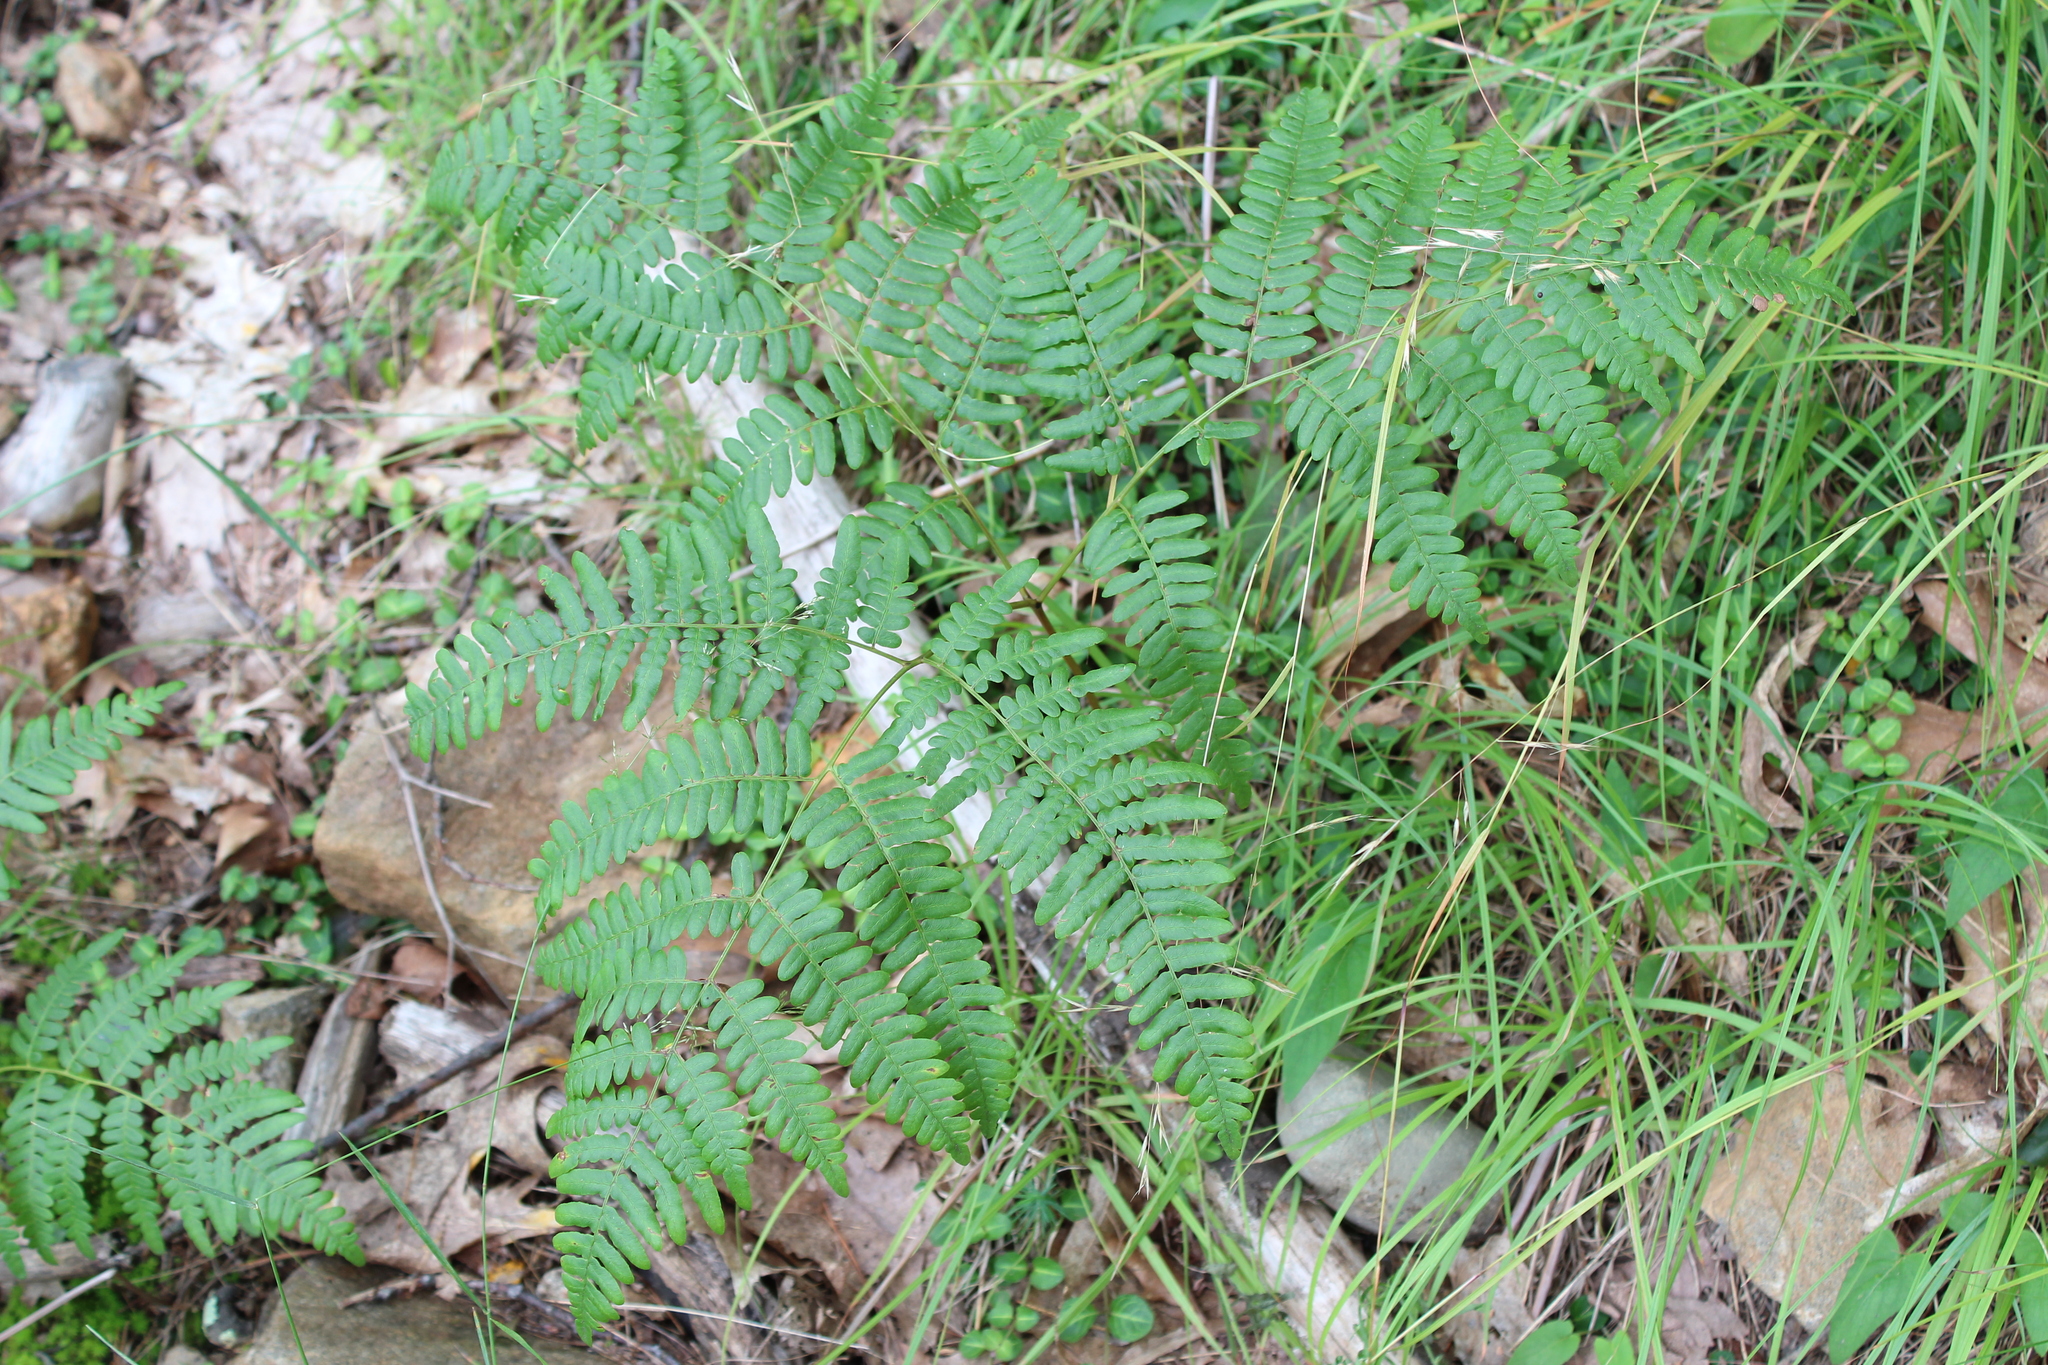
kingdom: Plantae
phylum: Tracheophyta
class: Polypodiopsida
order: Polypodiales
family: Dennstaedtiaceae
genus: Pteridium
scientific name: Pteridium aquilinum
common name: Bracken
